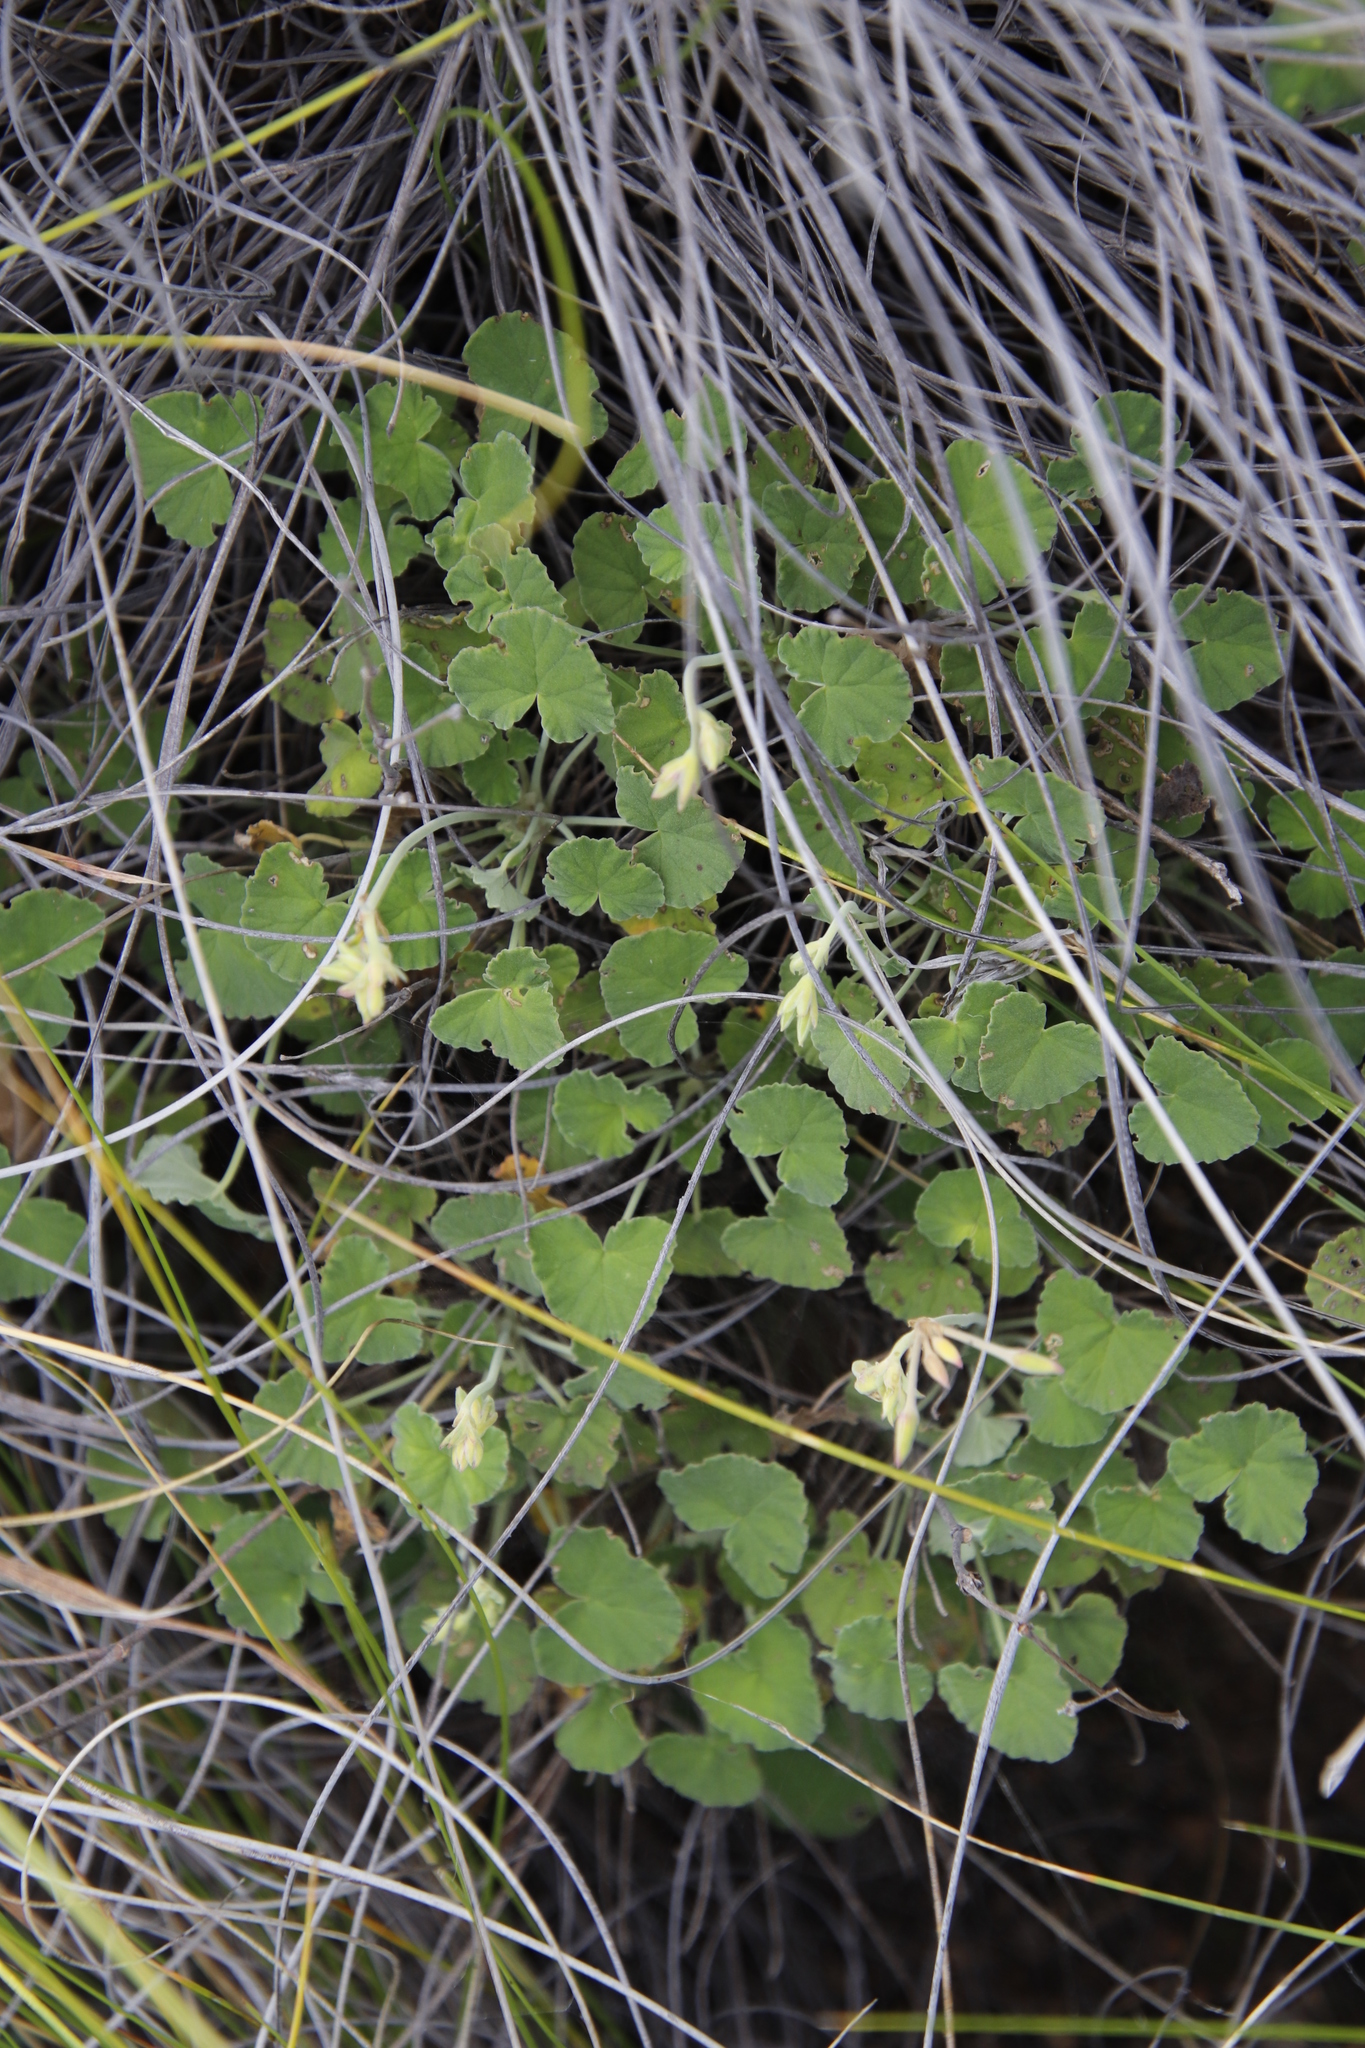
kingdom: Plantae
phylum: Tracheophyta
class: Magnoliopsida
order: Geraniales
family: Geraniaceae
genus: Pelargonium
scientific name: Pelargonium dichondrifolium
